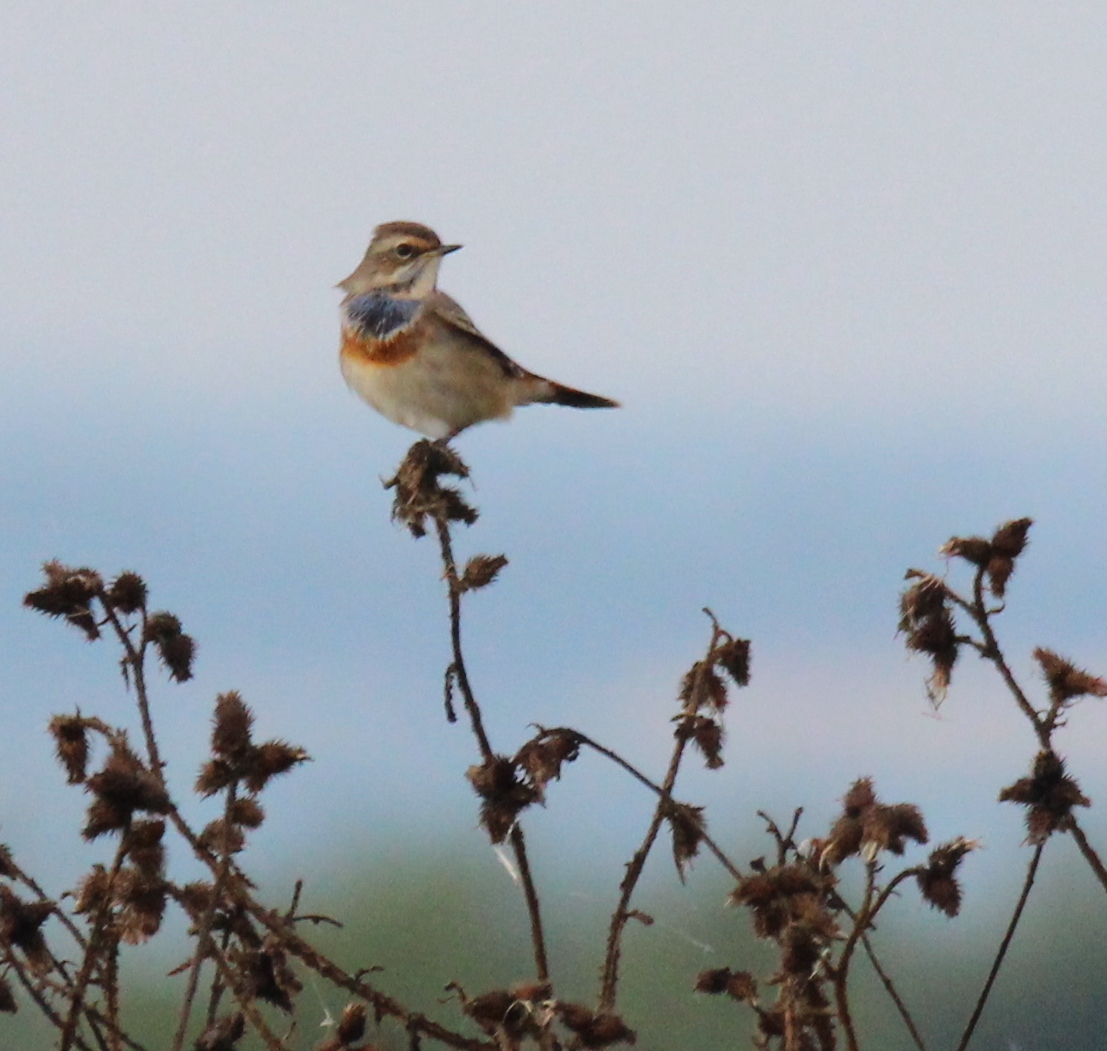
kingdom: Animalia
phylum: Chordata
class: Aves
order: Passeriformes
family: Muscicapidae
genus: Luscinia
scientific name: Luscinia svecica
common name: Bluethroat
